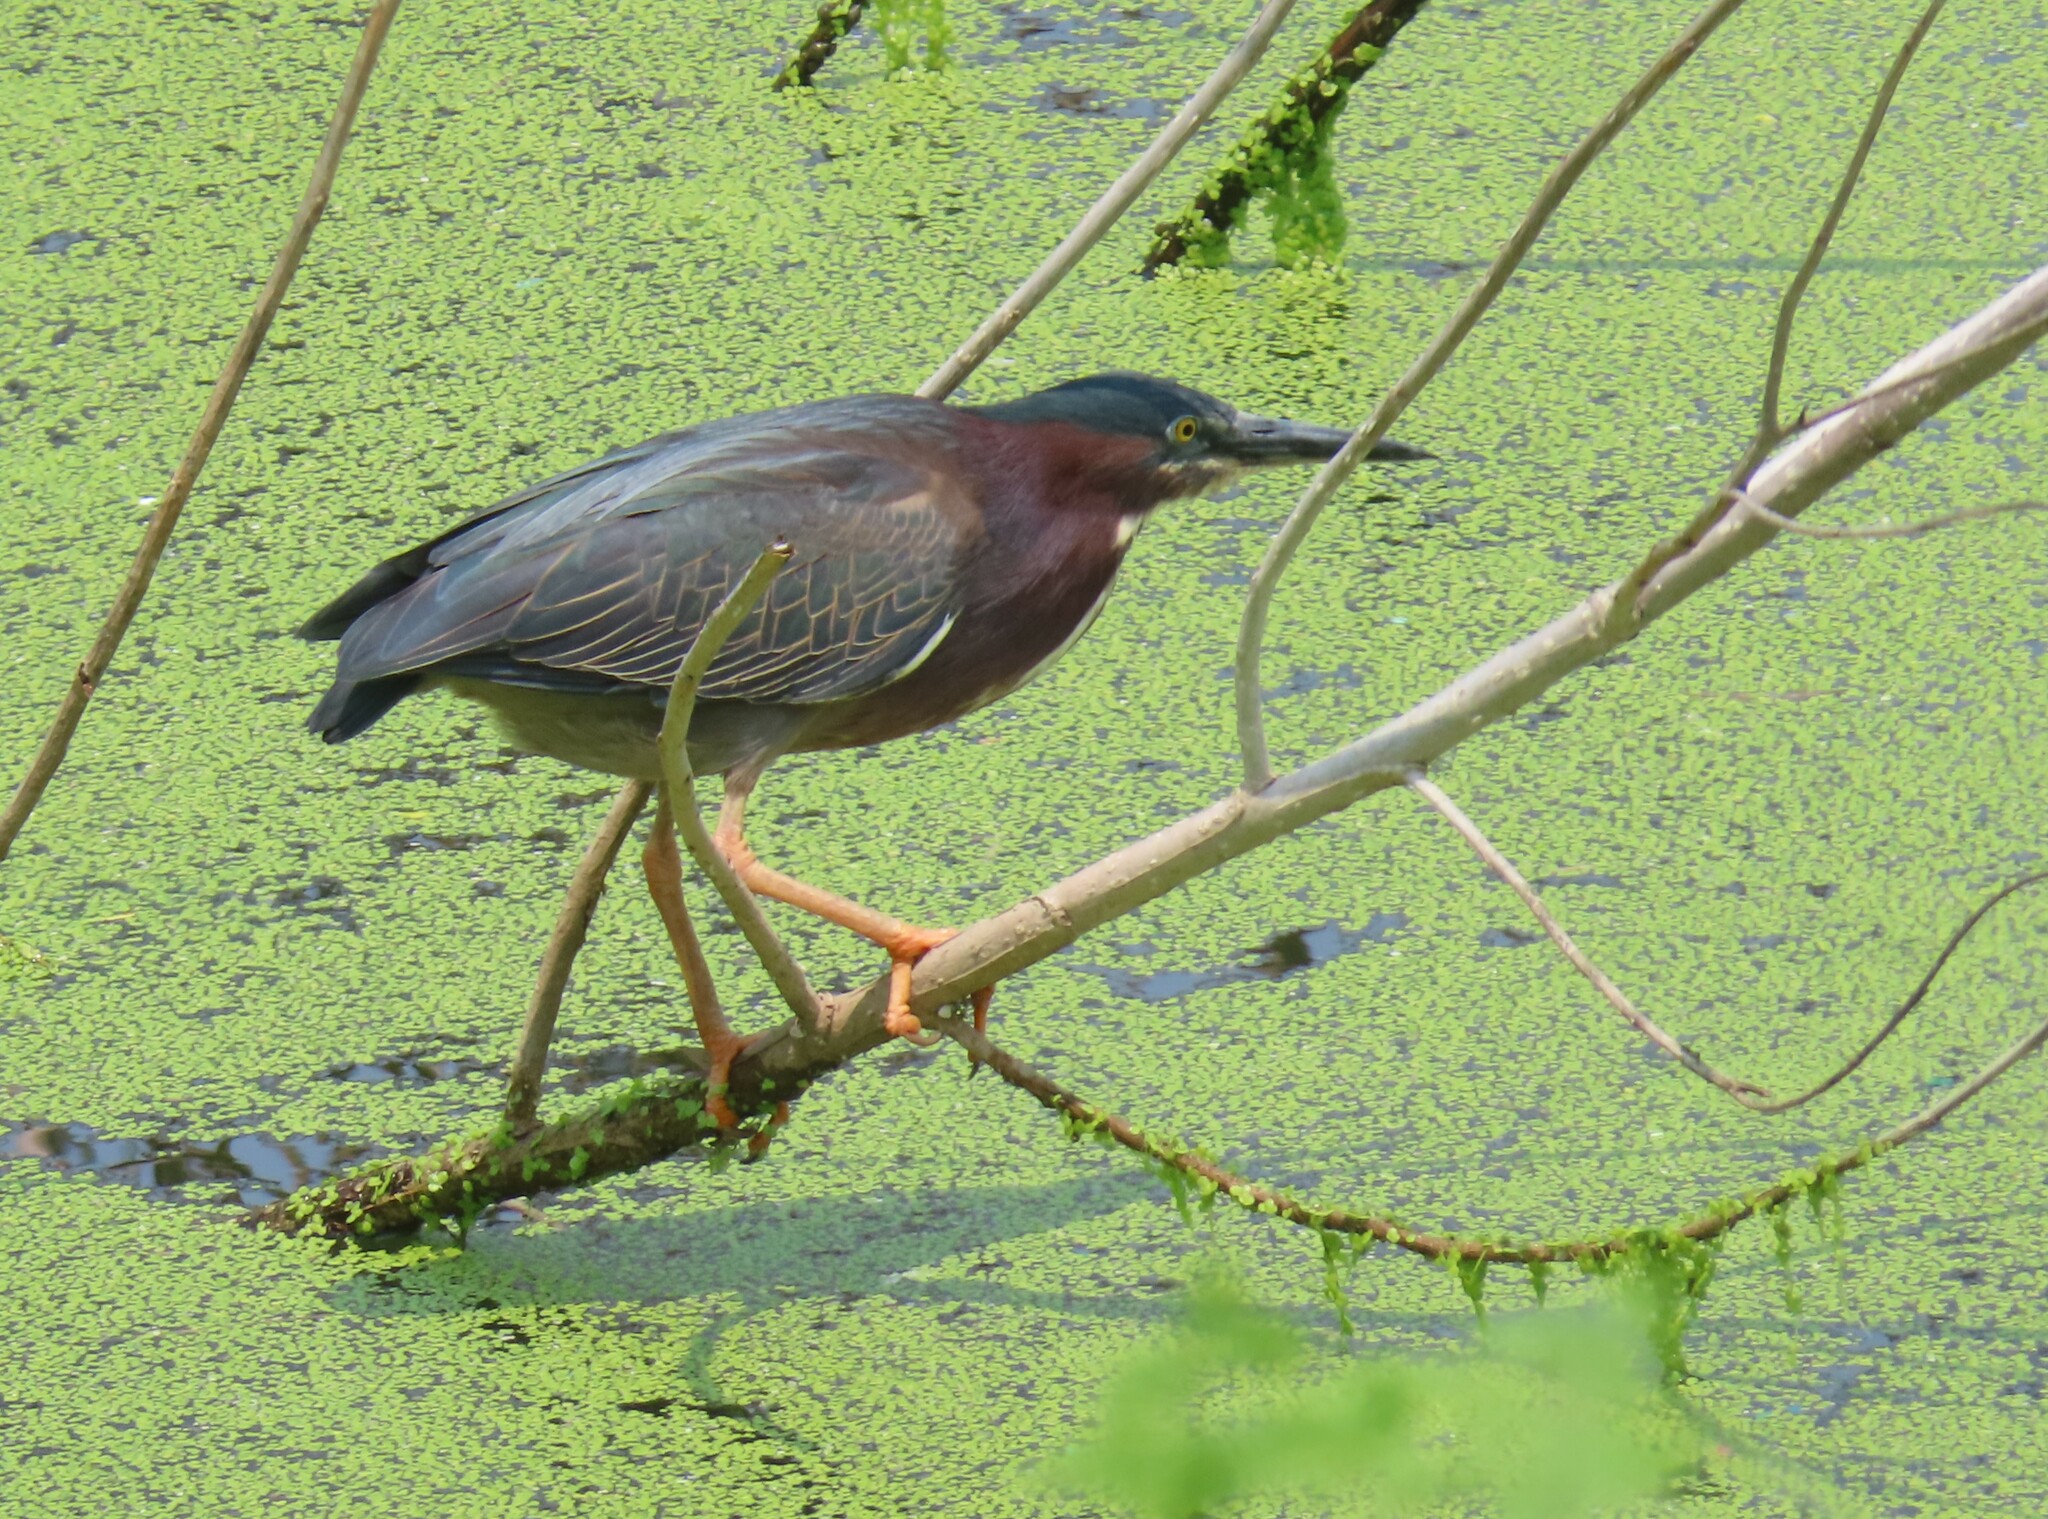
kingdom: Animalia
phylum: Chordata
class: Aves
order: Pelecaniformes
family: Ardeidae
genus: Butorides
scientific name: Butorides virescens
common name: Green heron
